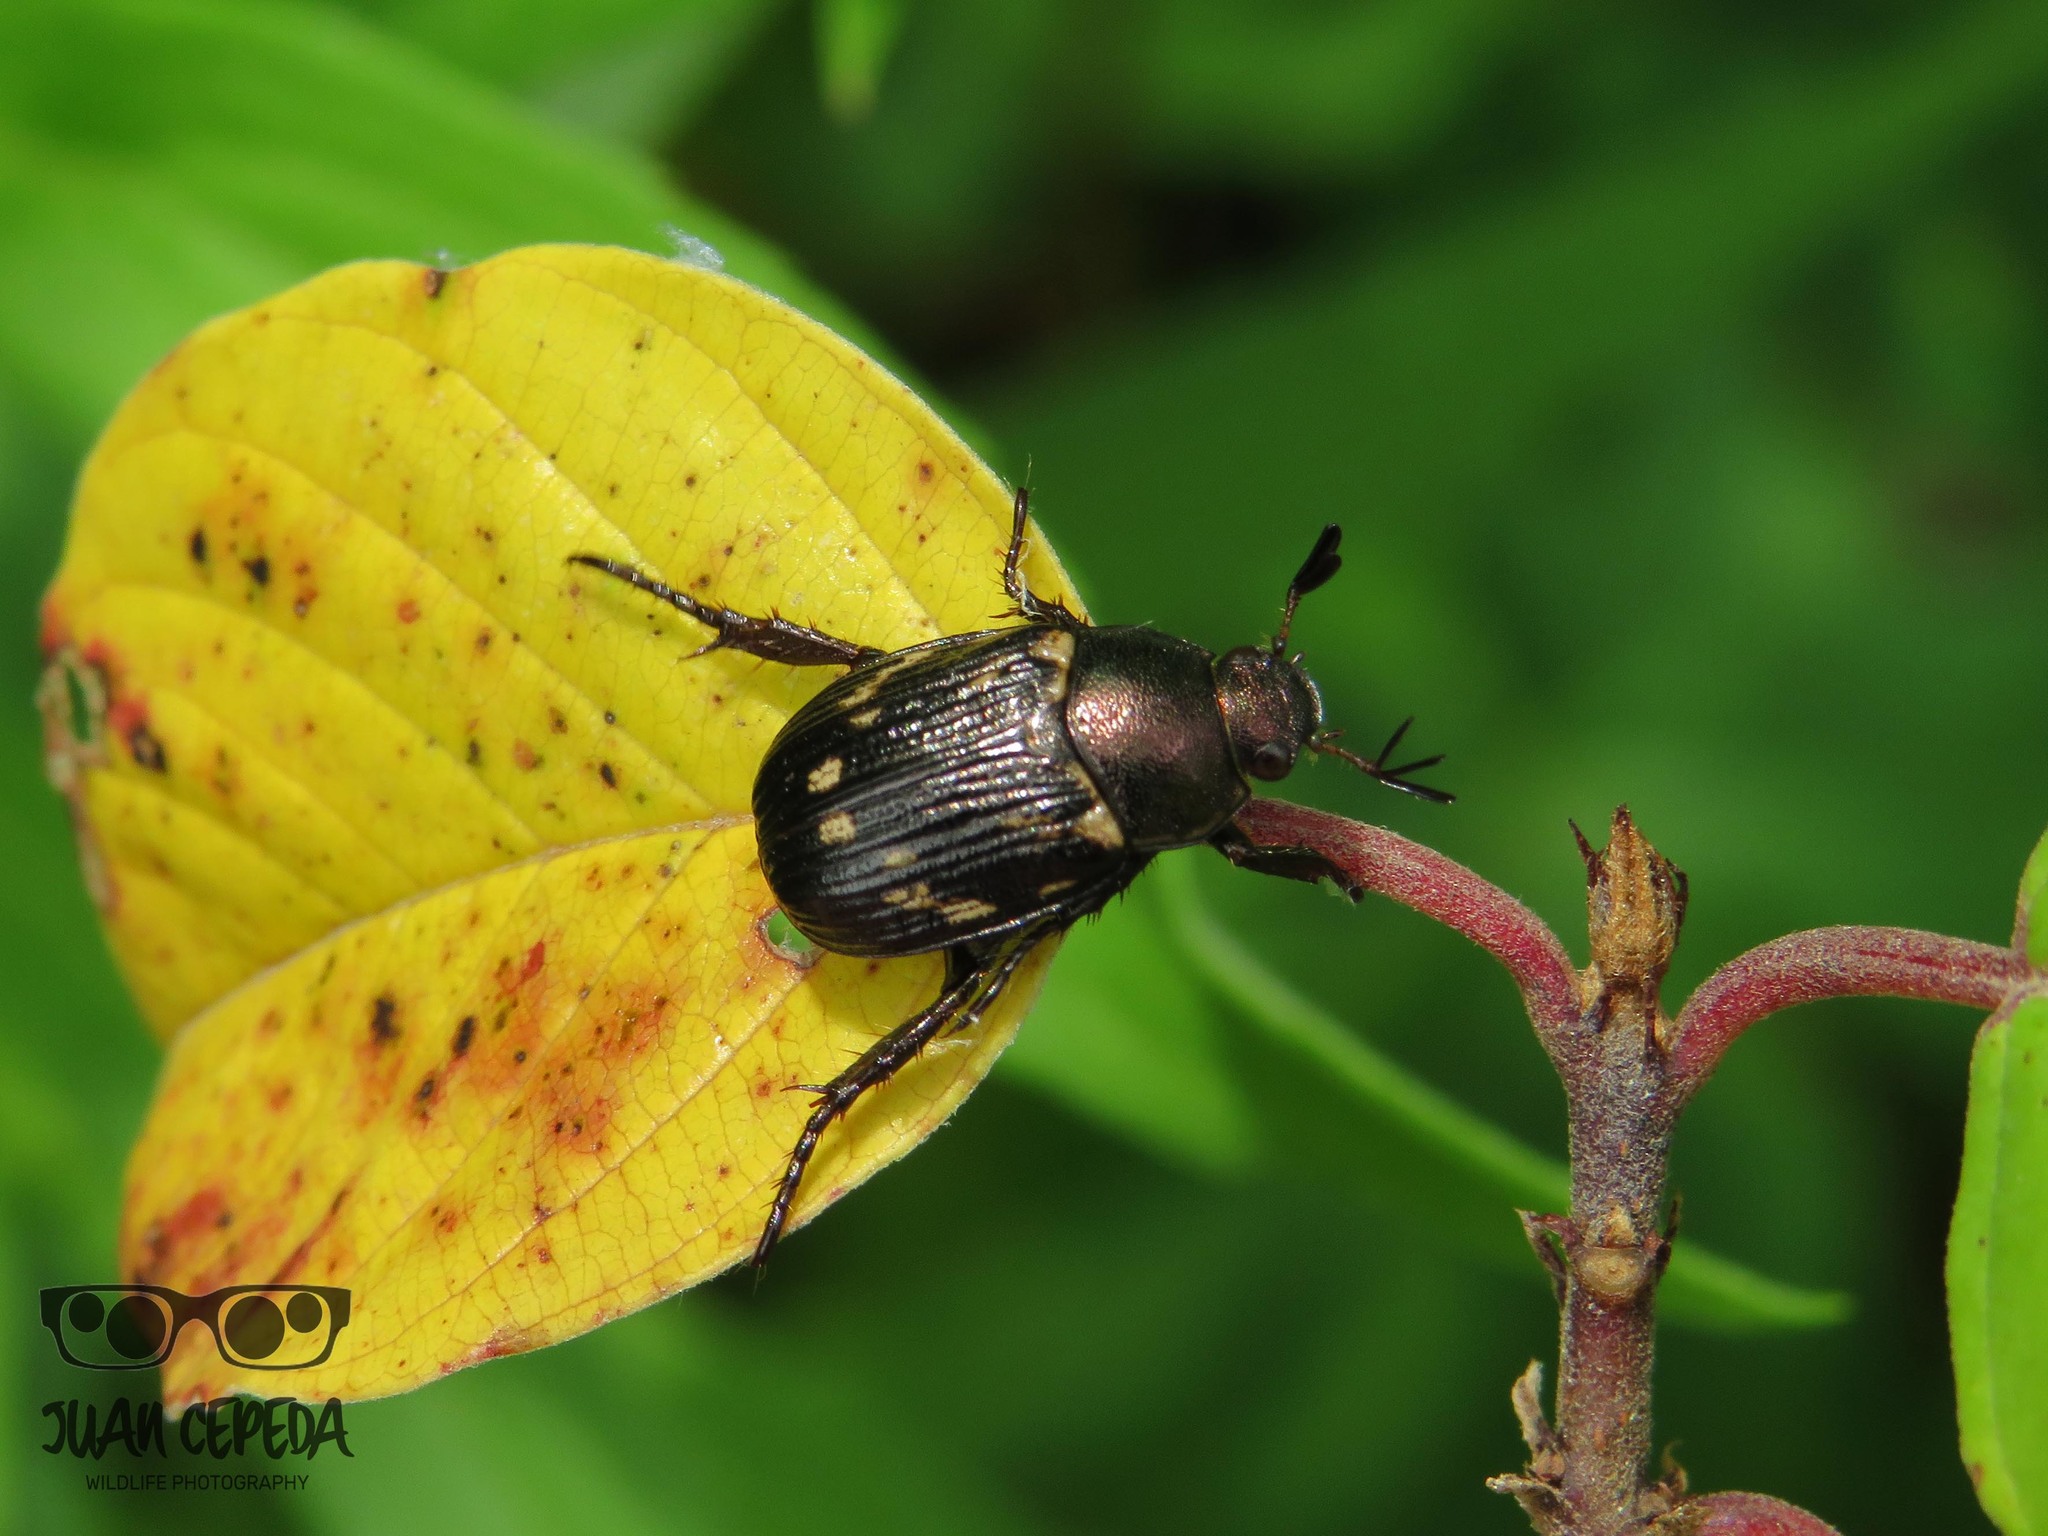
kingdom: Animalia
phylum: Arthropoda
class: Insecta
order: Coleoptera
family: Scarabaeidae
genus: Exomala
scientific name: Exomala orientalis
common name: Oriental beetle
